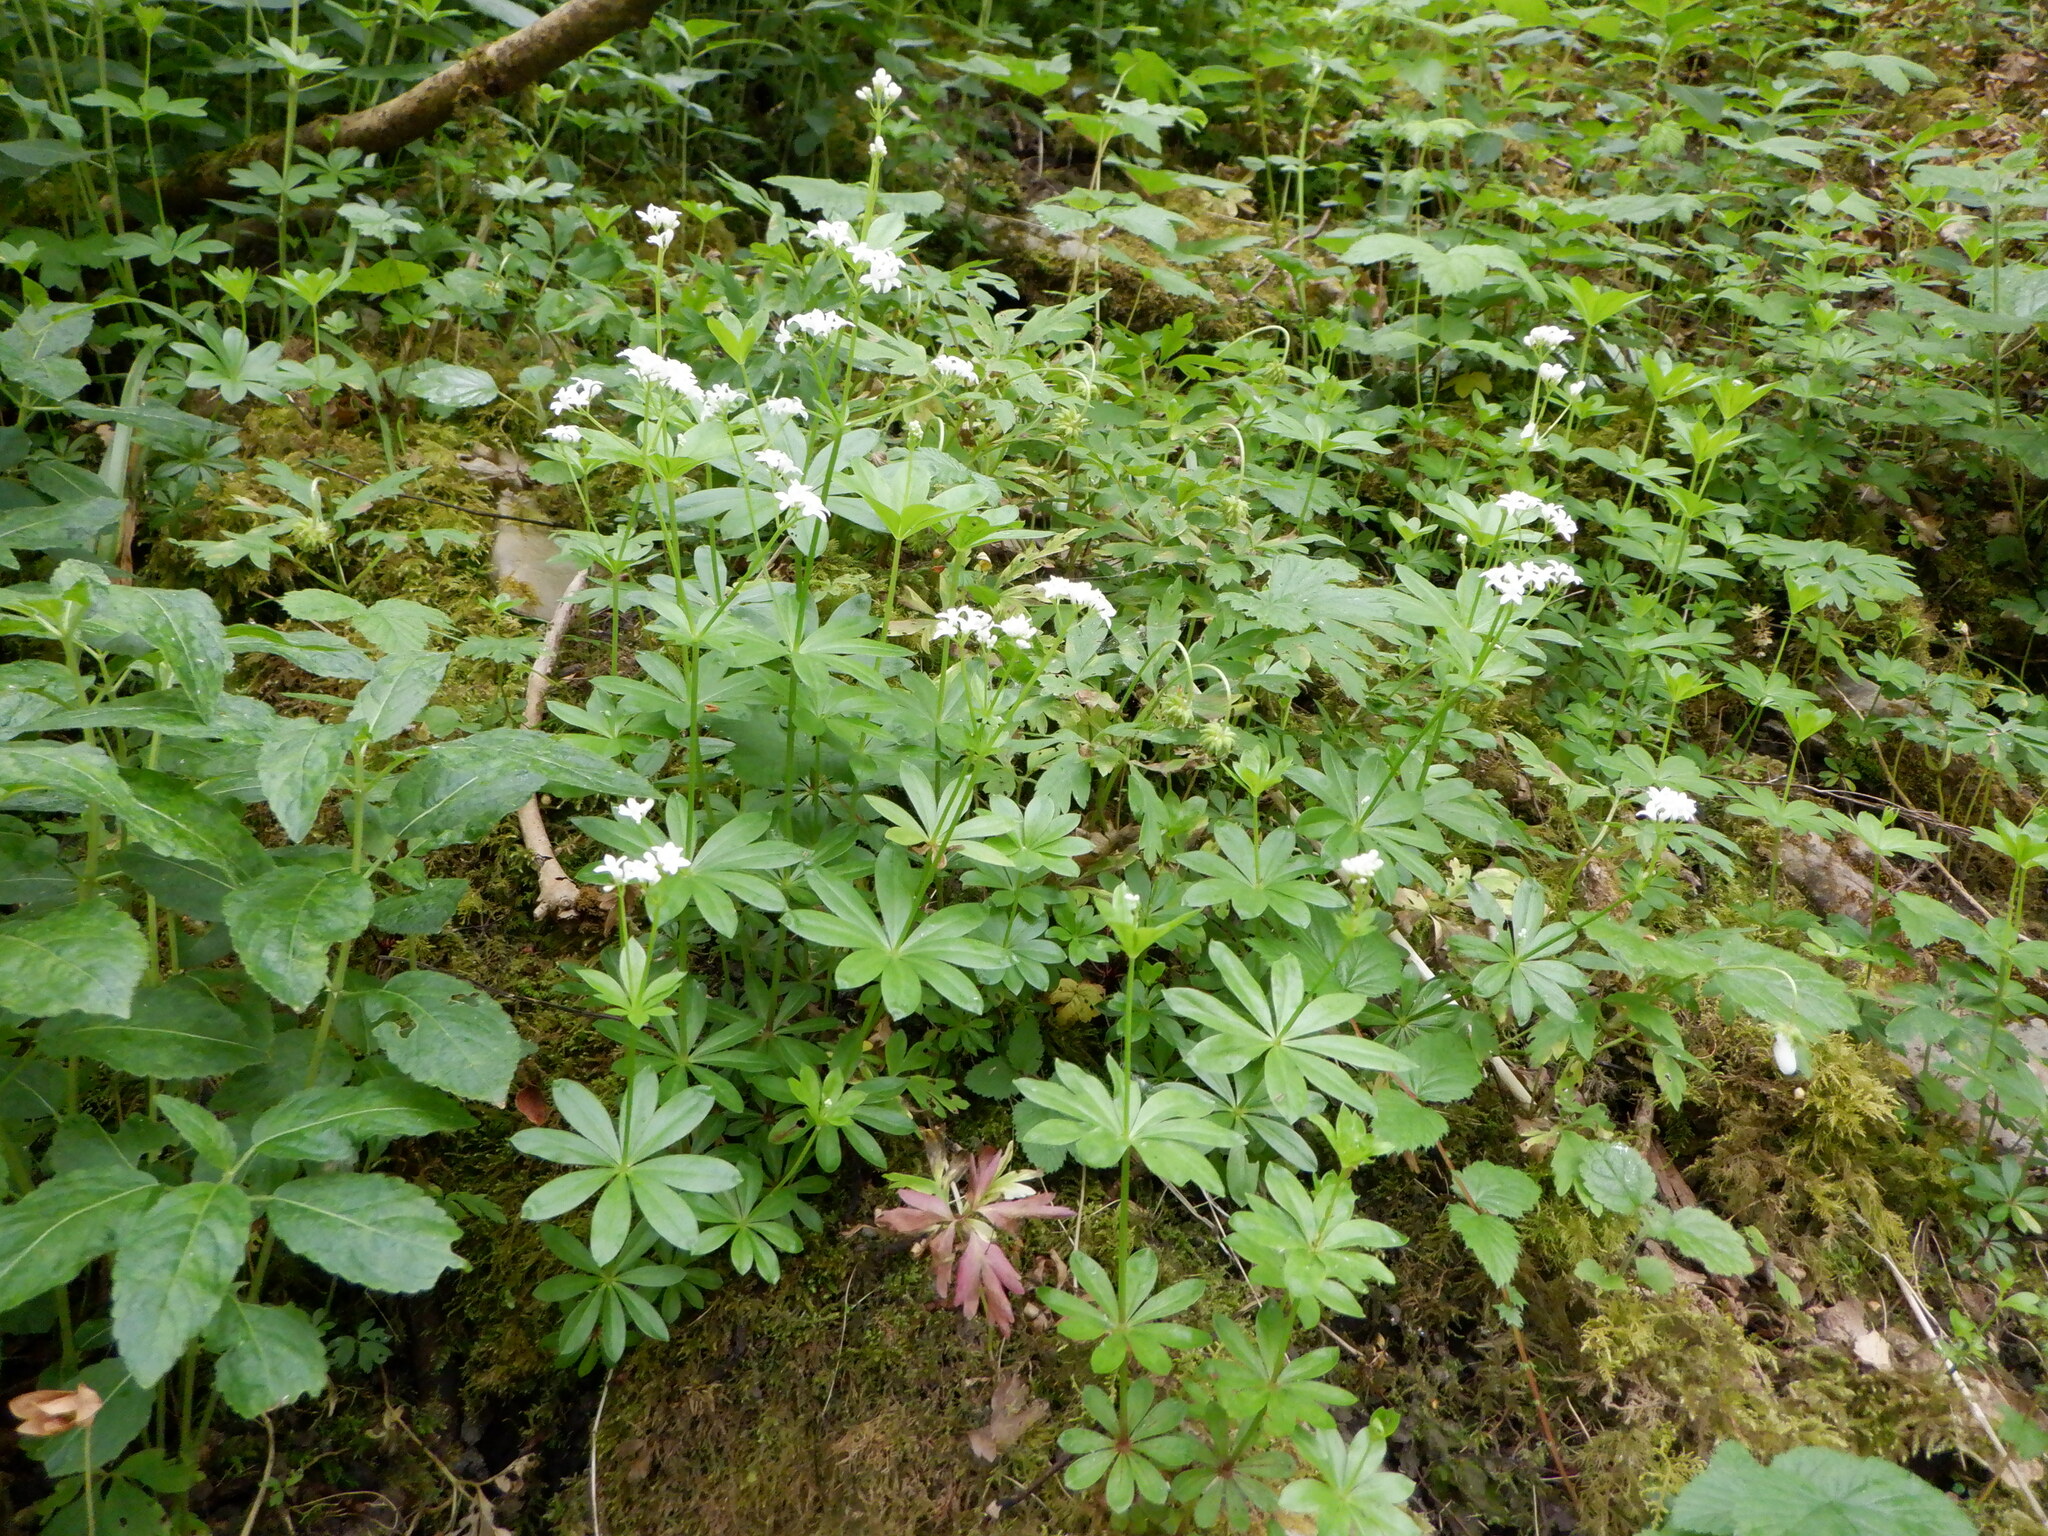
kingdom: Plantae
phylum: Tracheophyta
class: Magnoliopsida
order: Gentianales
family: Rubiaceae
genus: Galium
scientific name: Galium odoratum
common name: Sweet woodruff
